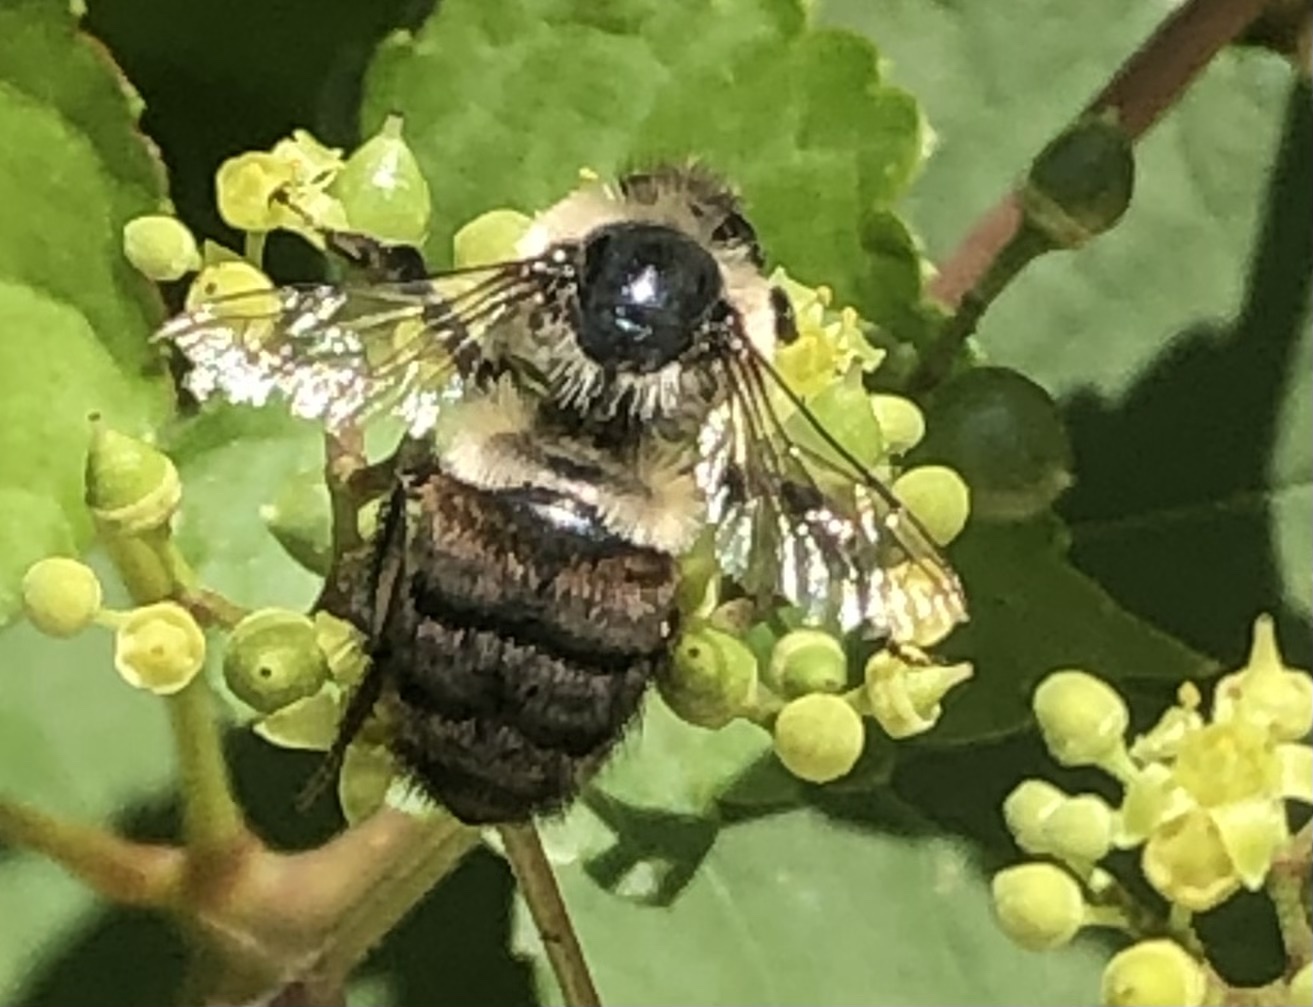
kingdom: Animalia
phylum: Arthropoda
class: Insecta
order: Hymenoptera
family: Apidae
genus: Bombus
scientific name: Bombus impatiens
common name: Common eastern bumble bee
